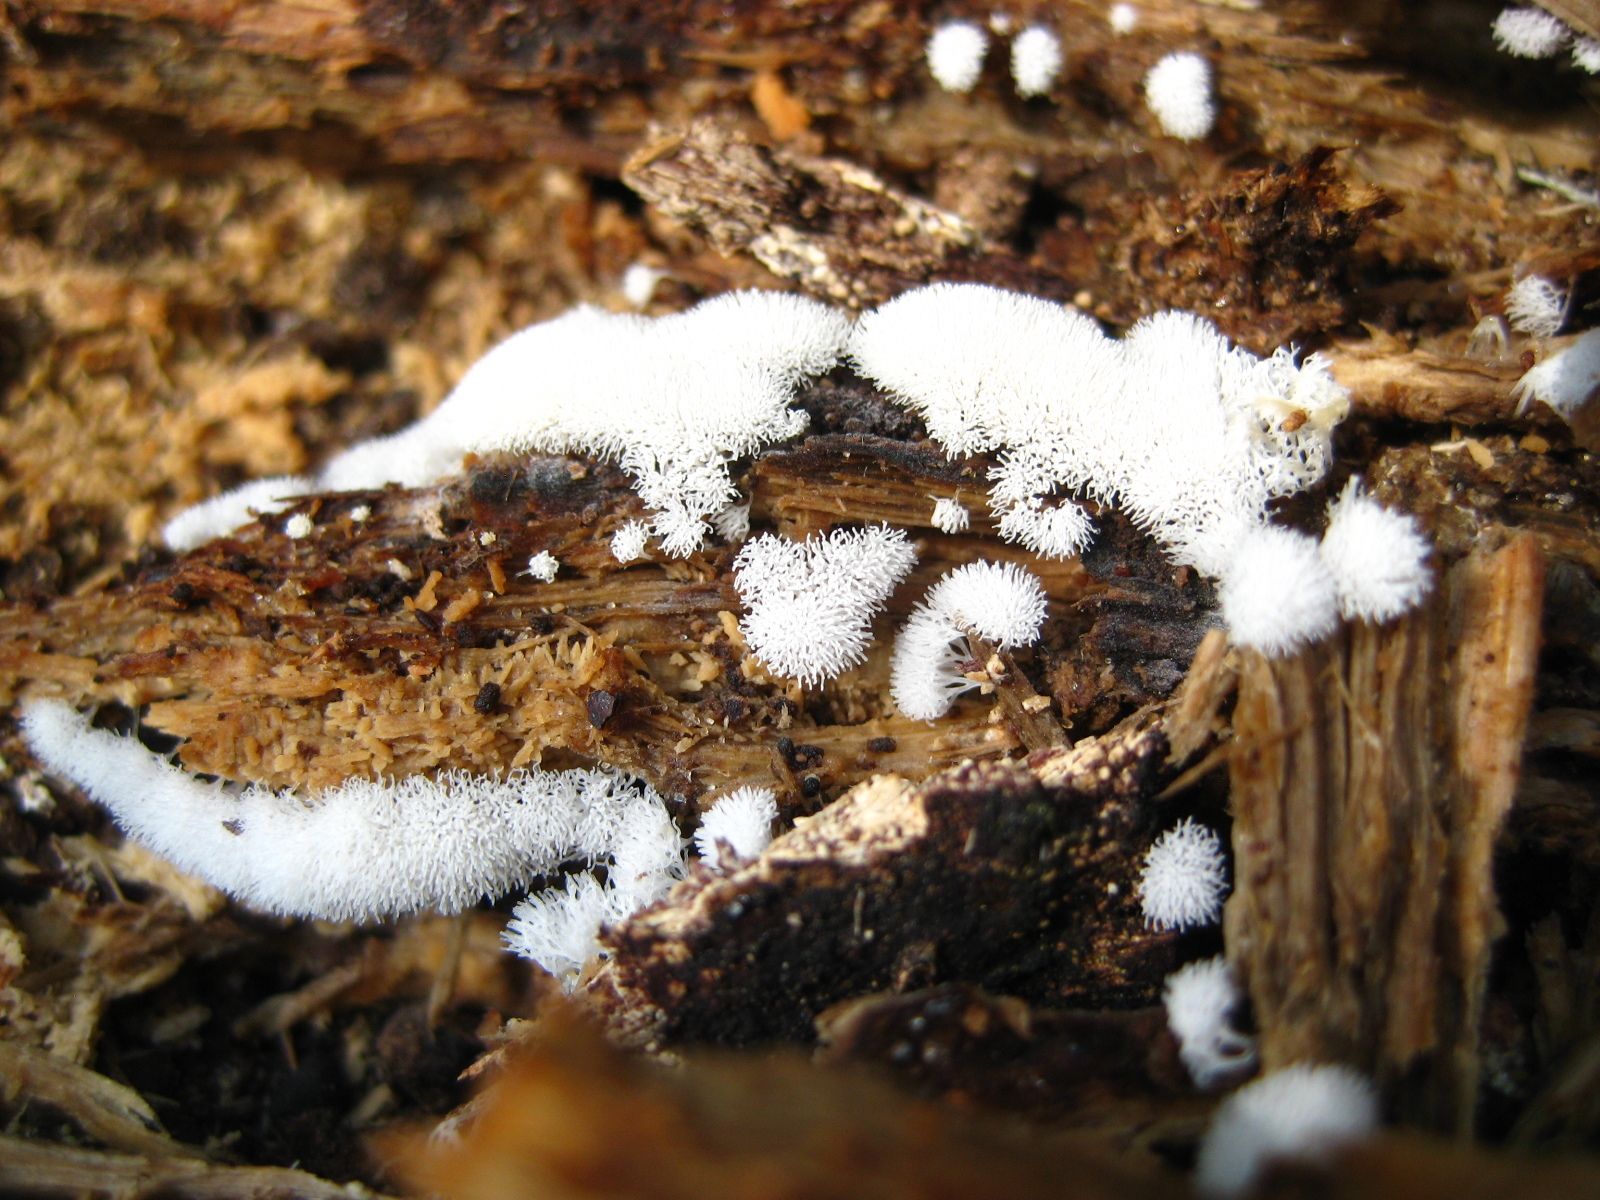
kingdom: Protozoa
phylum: Mycetozoa
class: Protosteliomycetes
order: Ceratiomyxales
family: Ceratiomyxaceae
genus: Ceratiomyxa
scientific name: Ceratiomyxa fruticulosa
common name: Honeycomb coral slime mold
